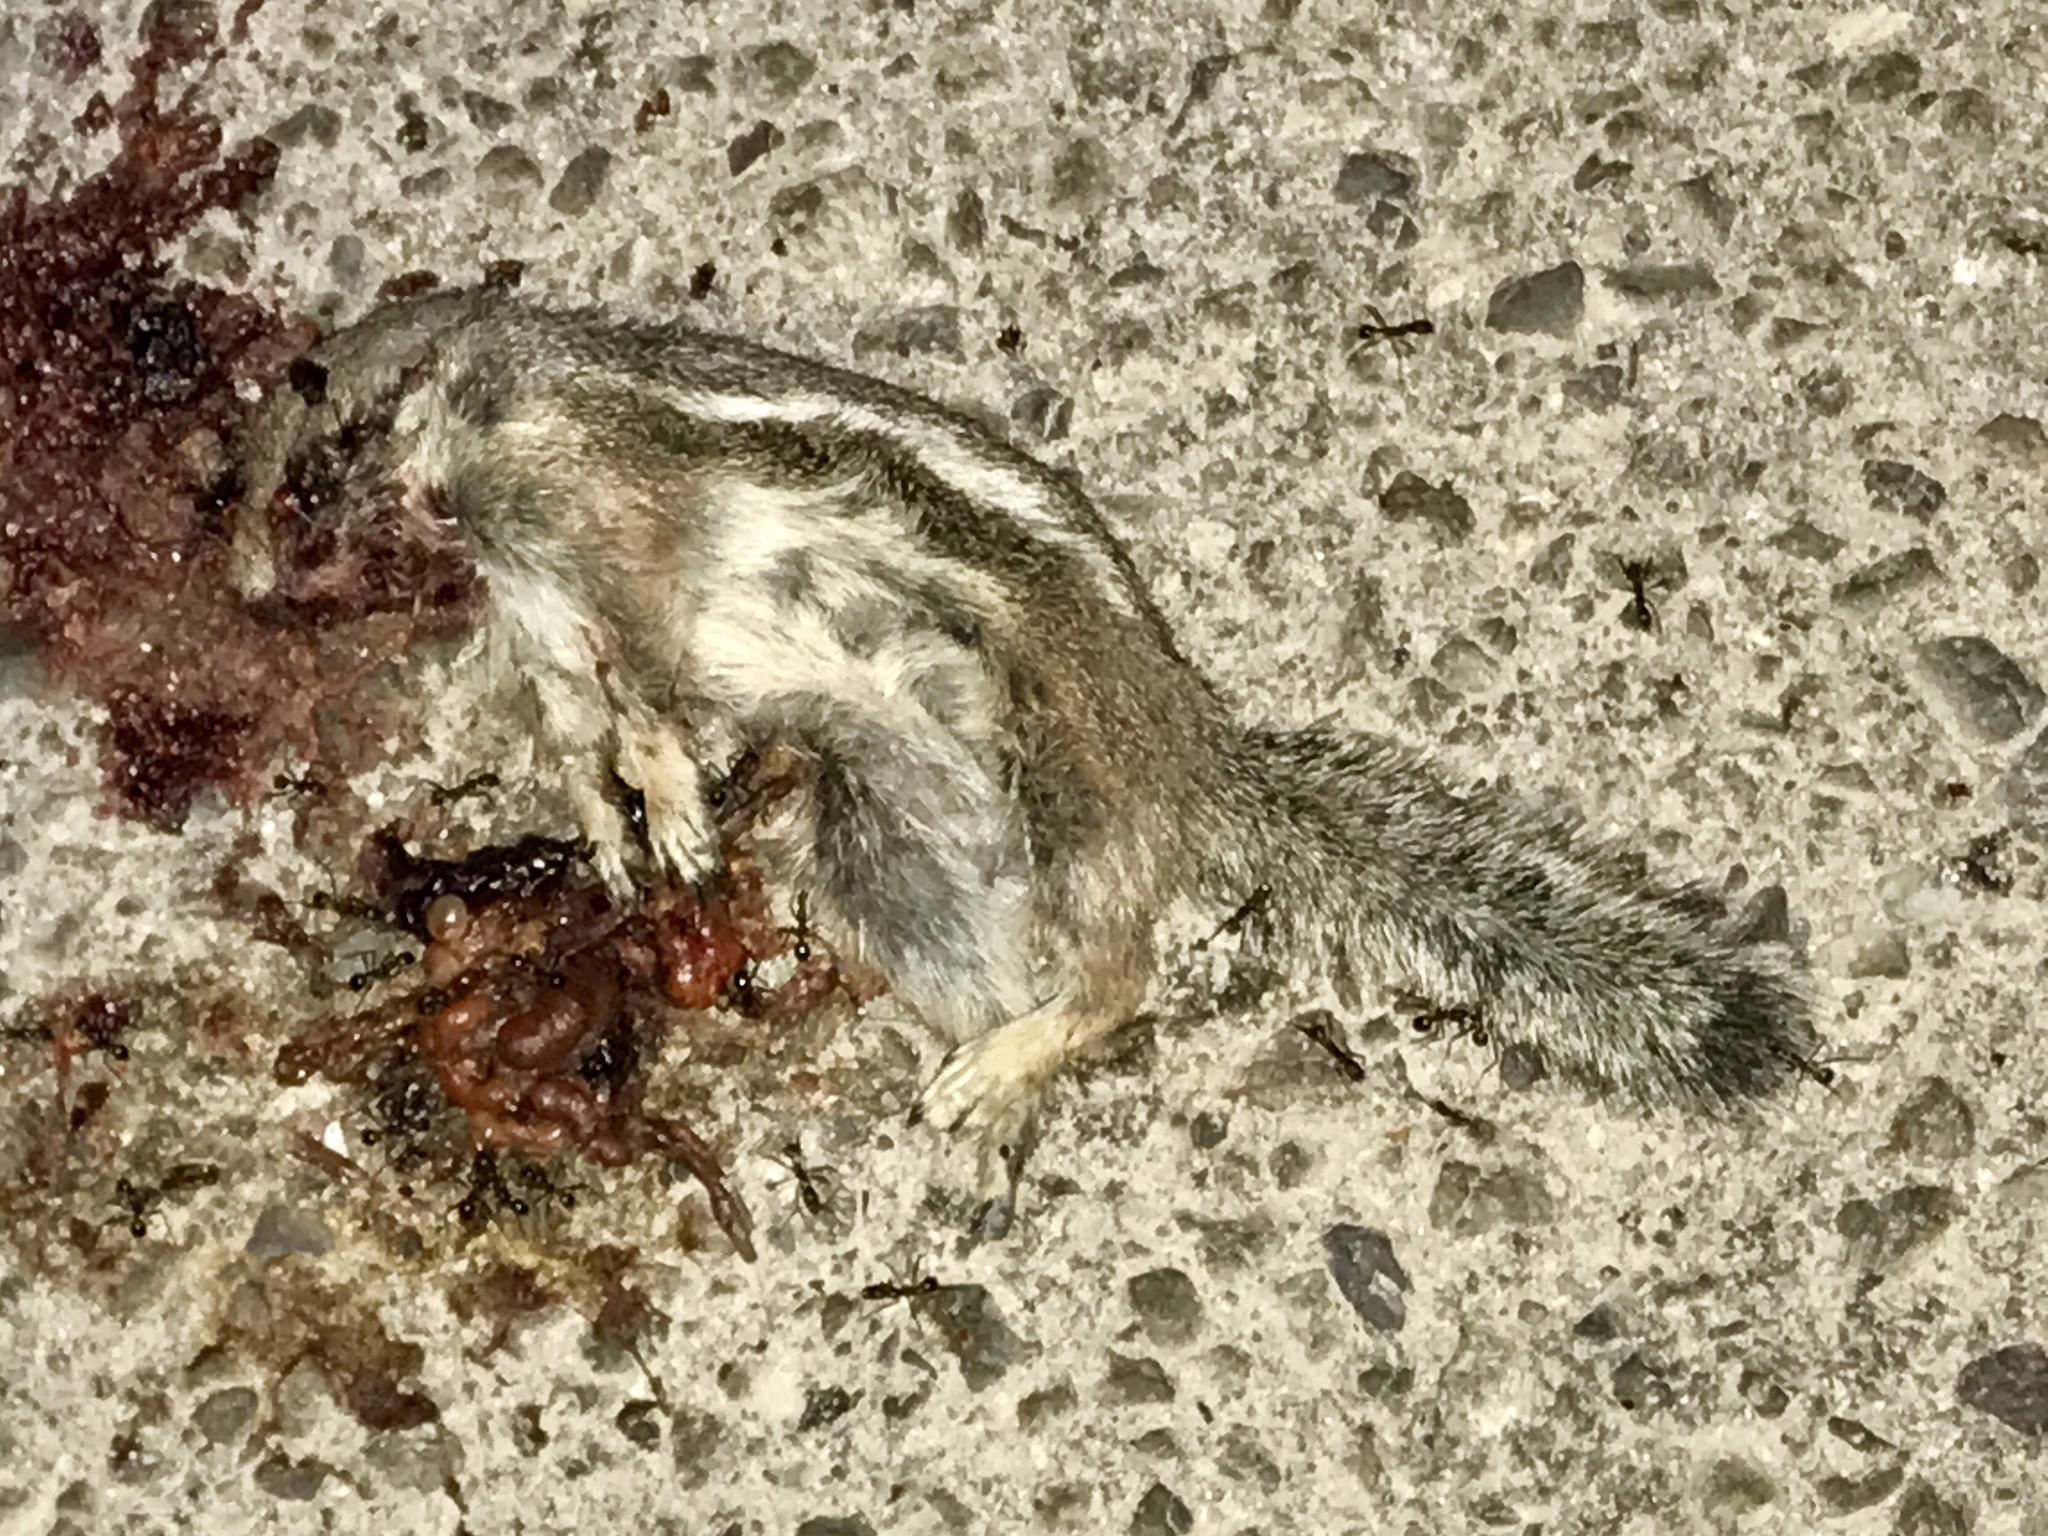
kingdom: Animalia
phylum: Chordata
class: Mammalia
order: Rodentia
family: Sciuridae
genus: Ammospermophilus
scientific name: Ammospermophilus harrisii
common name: Harris's antelope squirrel
